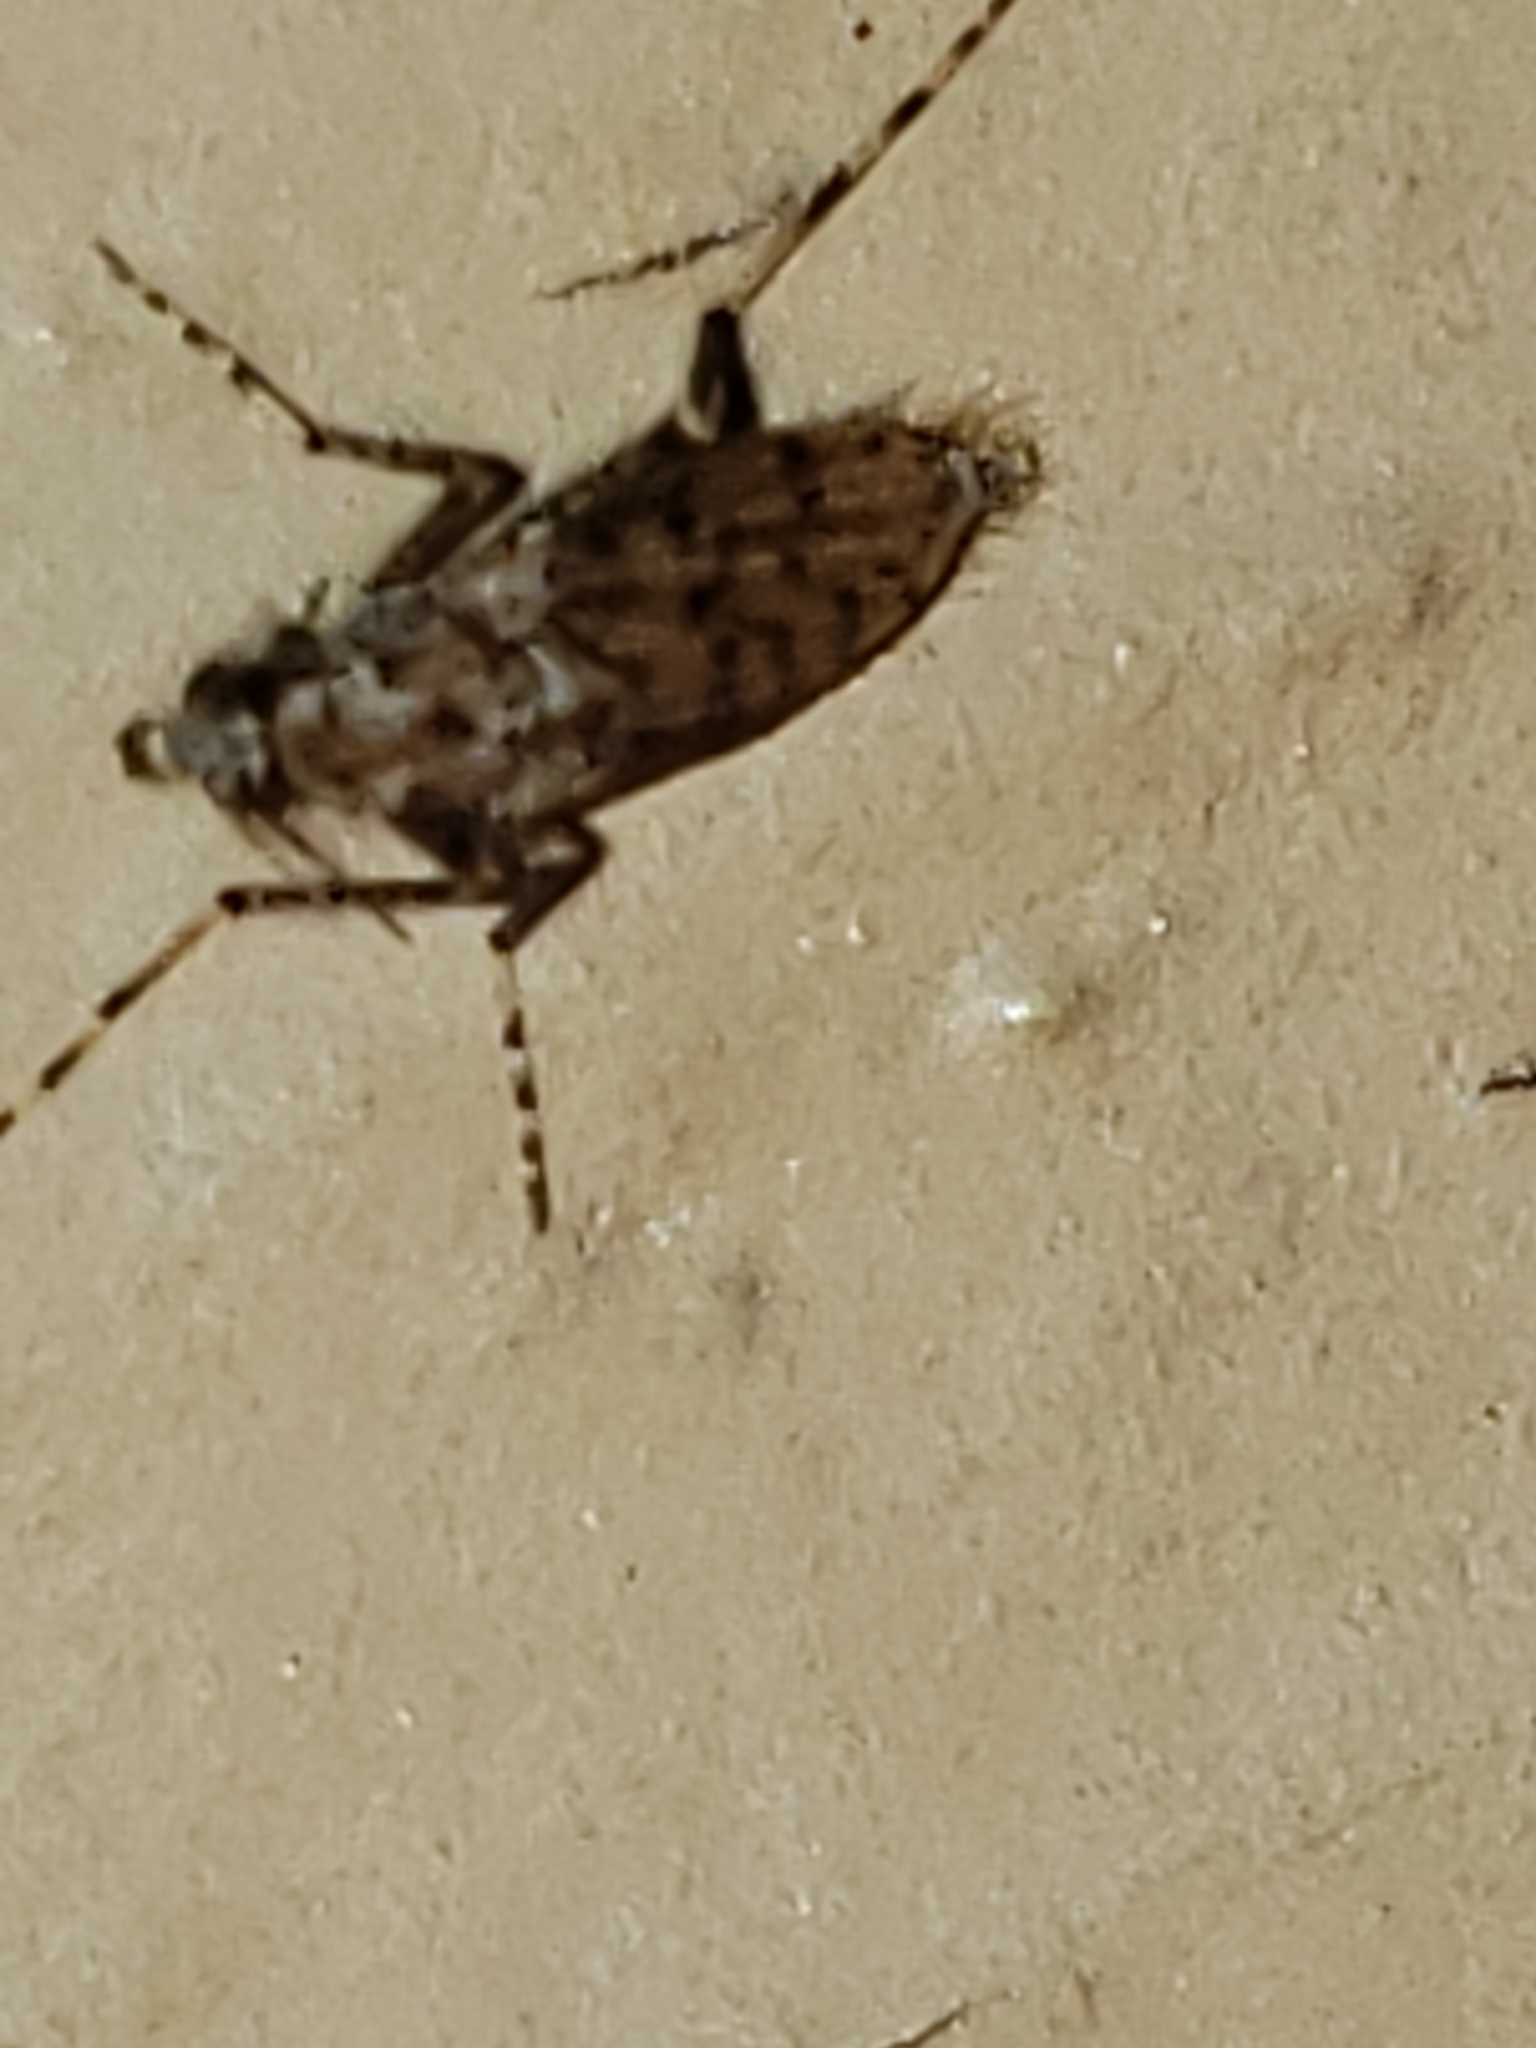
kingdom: Animalia
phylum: Arthropoda
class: Insecta
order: Diptera
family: Chaoboridae
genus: Chaoborus
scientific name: Chaoborus punctipennis
